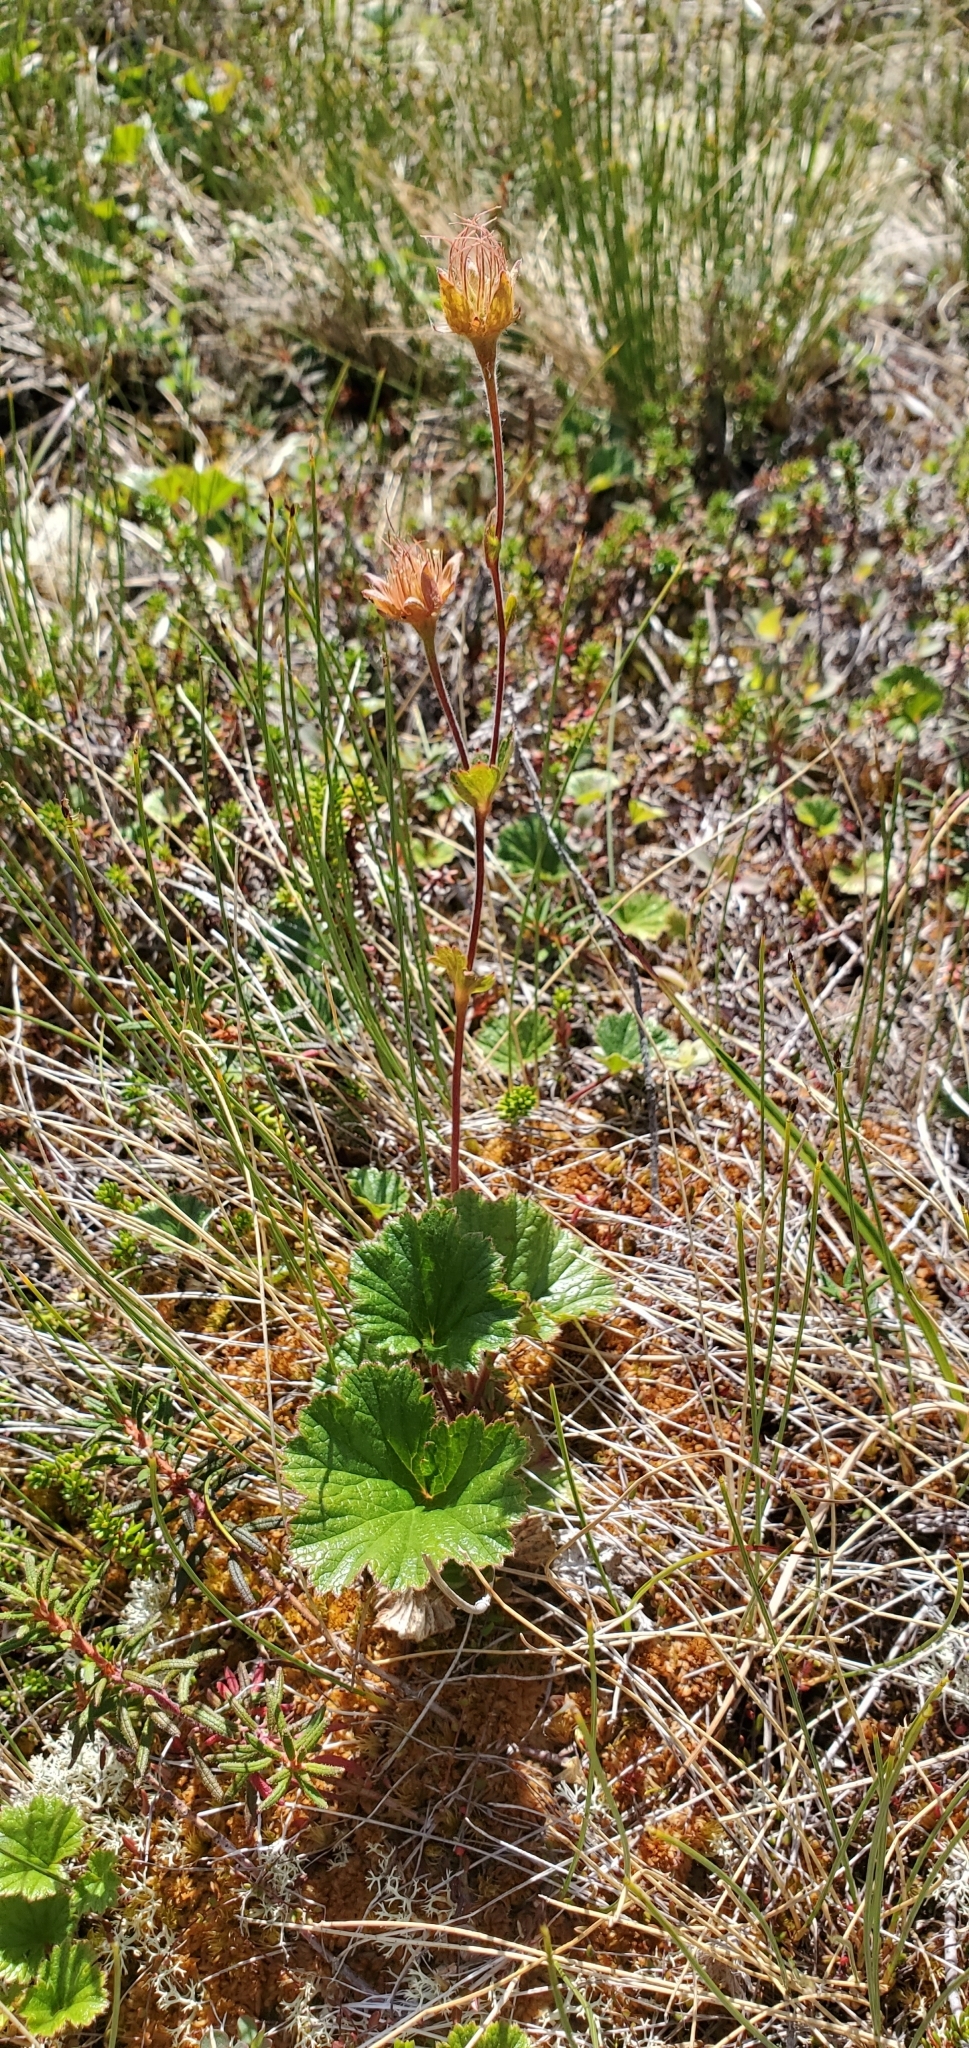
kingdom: Plantae
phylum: Tracheophyta
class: Magnoliopsida
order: Rosales
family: Rosaceae
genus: Geum
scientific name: Geum calthifolium
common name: Caltha-leaved avens
